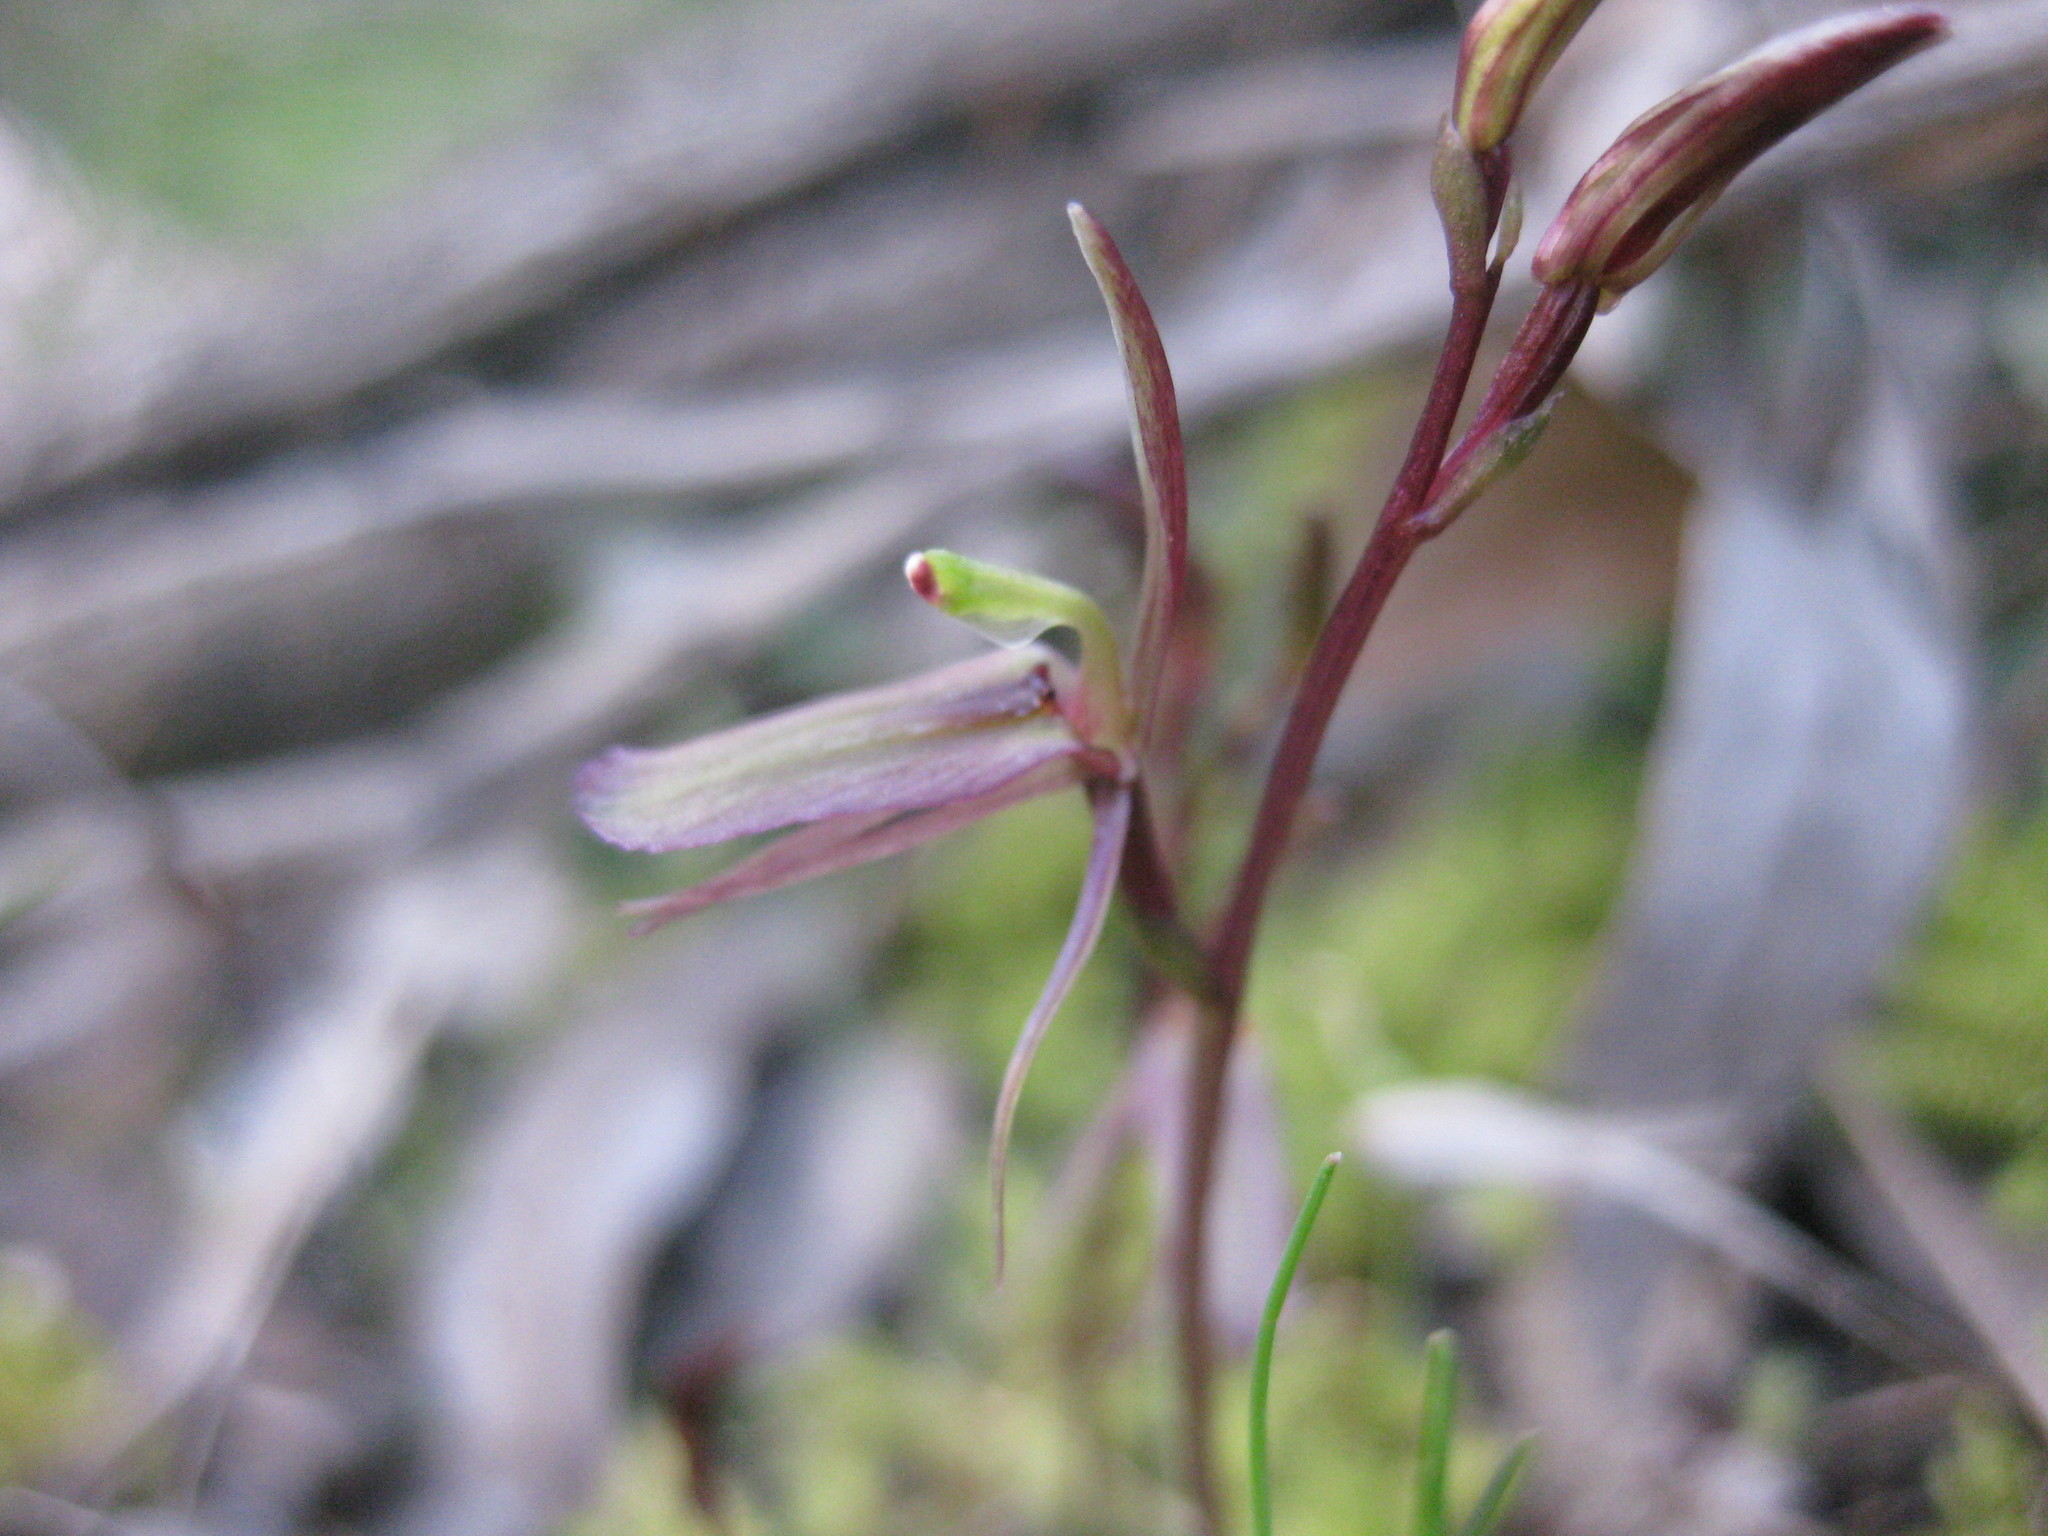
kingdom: Plantae
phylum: Tracheophyta
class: Liliopsida
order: Asparagales
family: Orchidaceae
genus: Cyrtostylis
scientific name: Cyrtostylis reniformis
